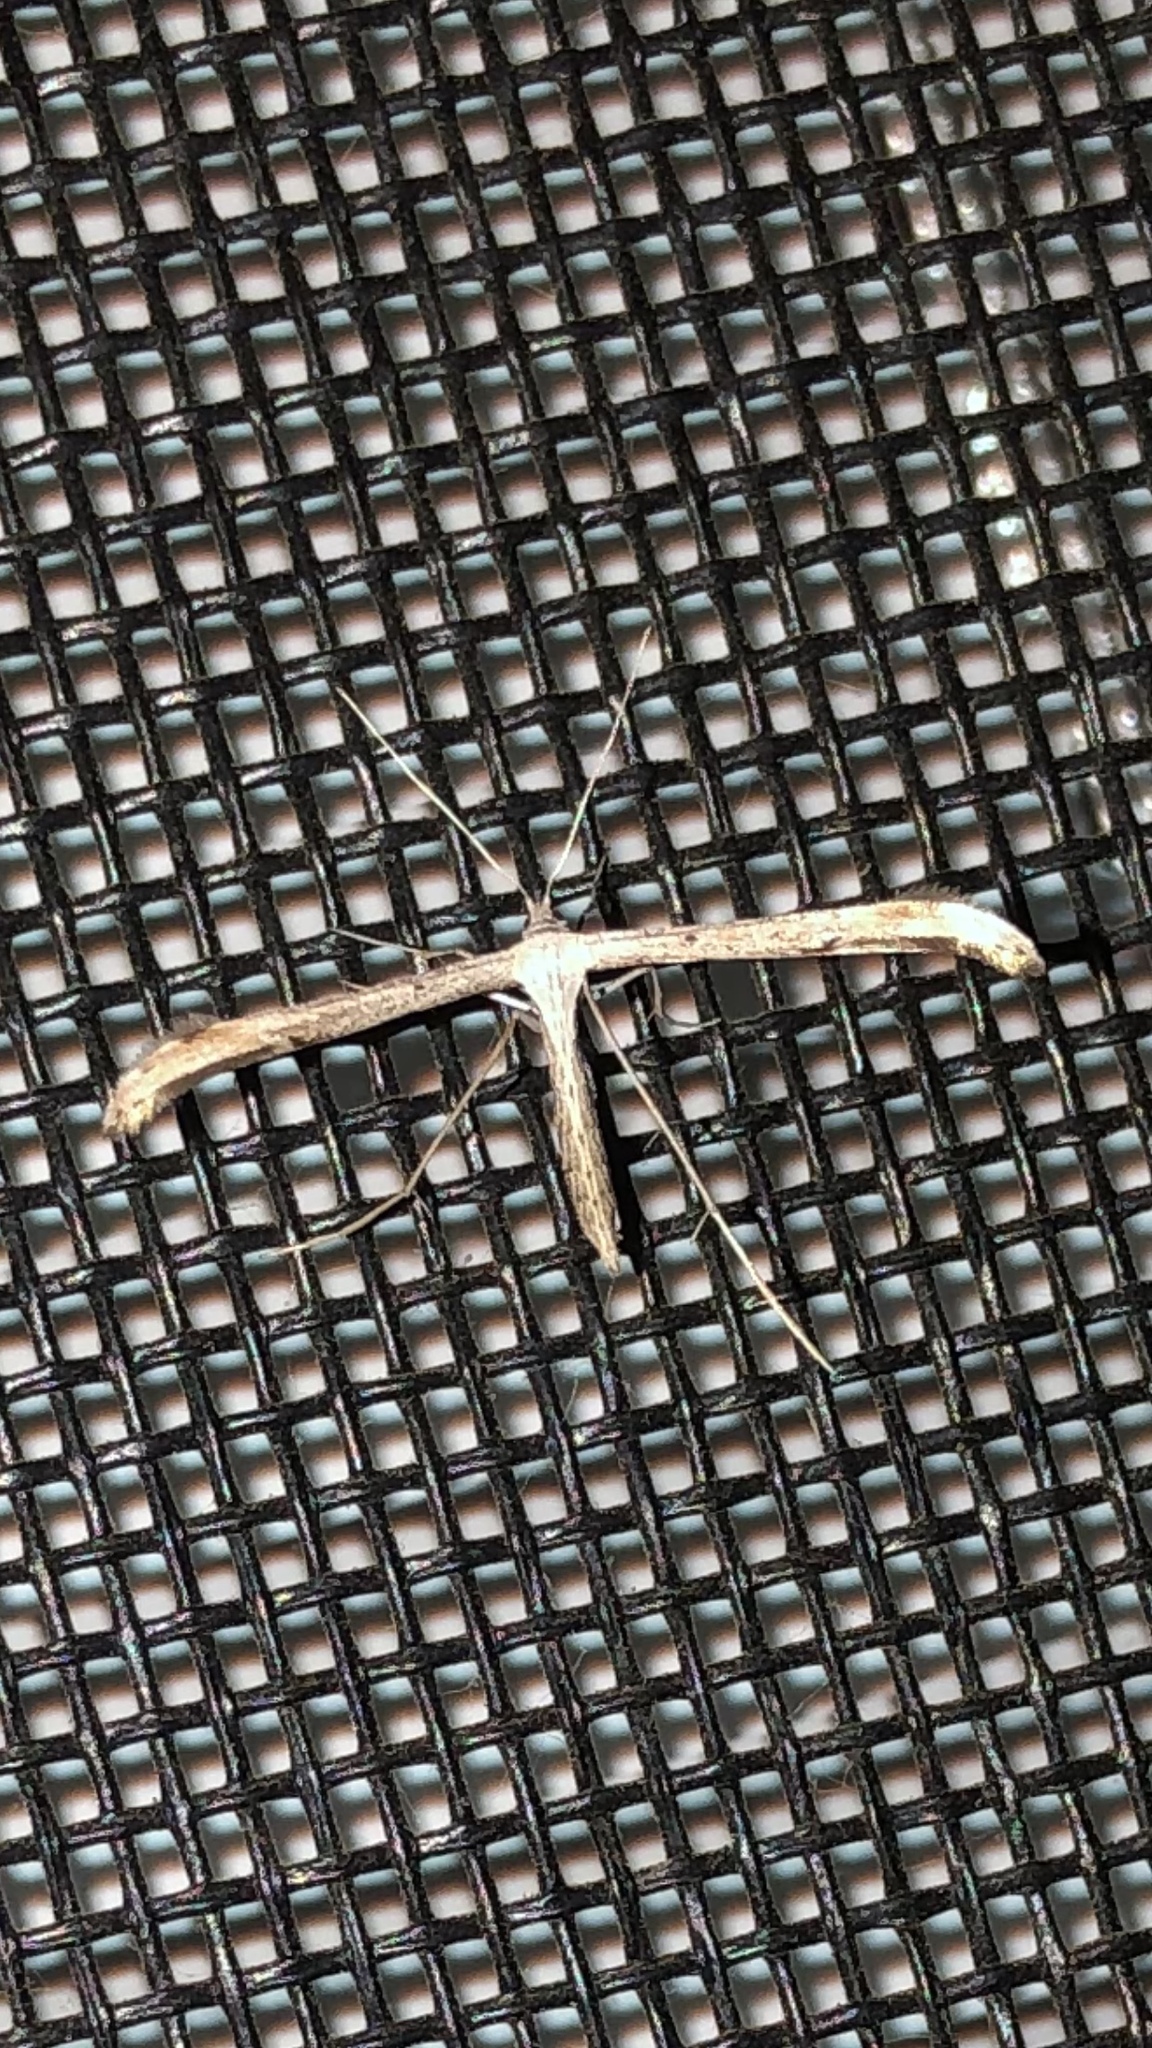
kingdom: Animalia
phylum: Arthropoda
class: Insecta
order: Lepidoptera
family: Pterophoridae
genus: Emmelina
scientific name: Emmelina monodactyla
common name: Common plume
